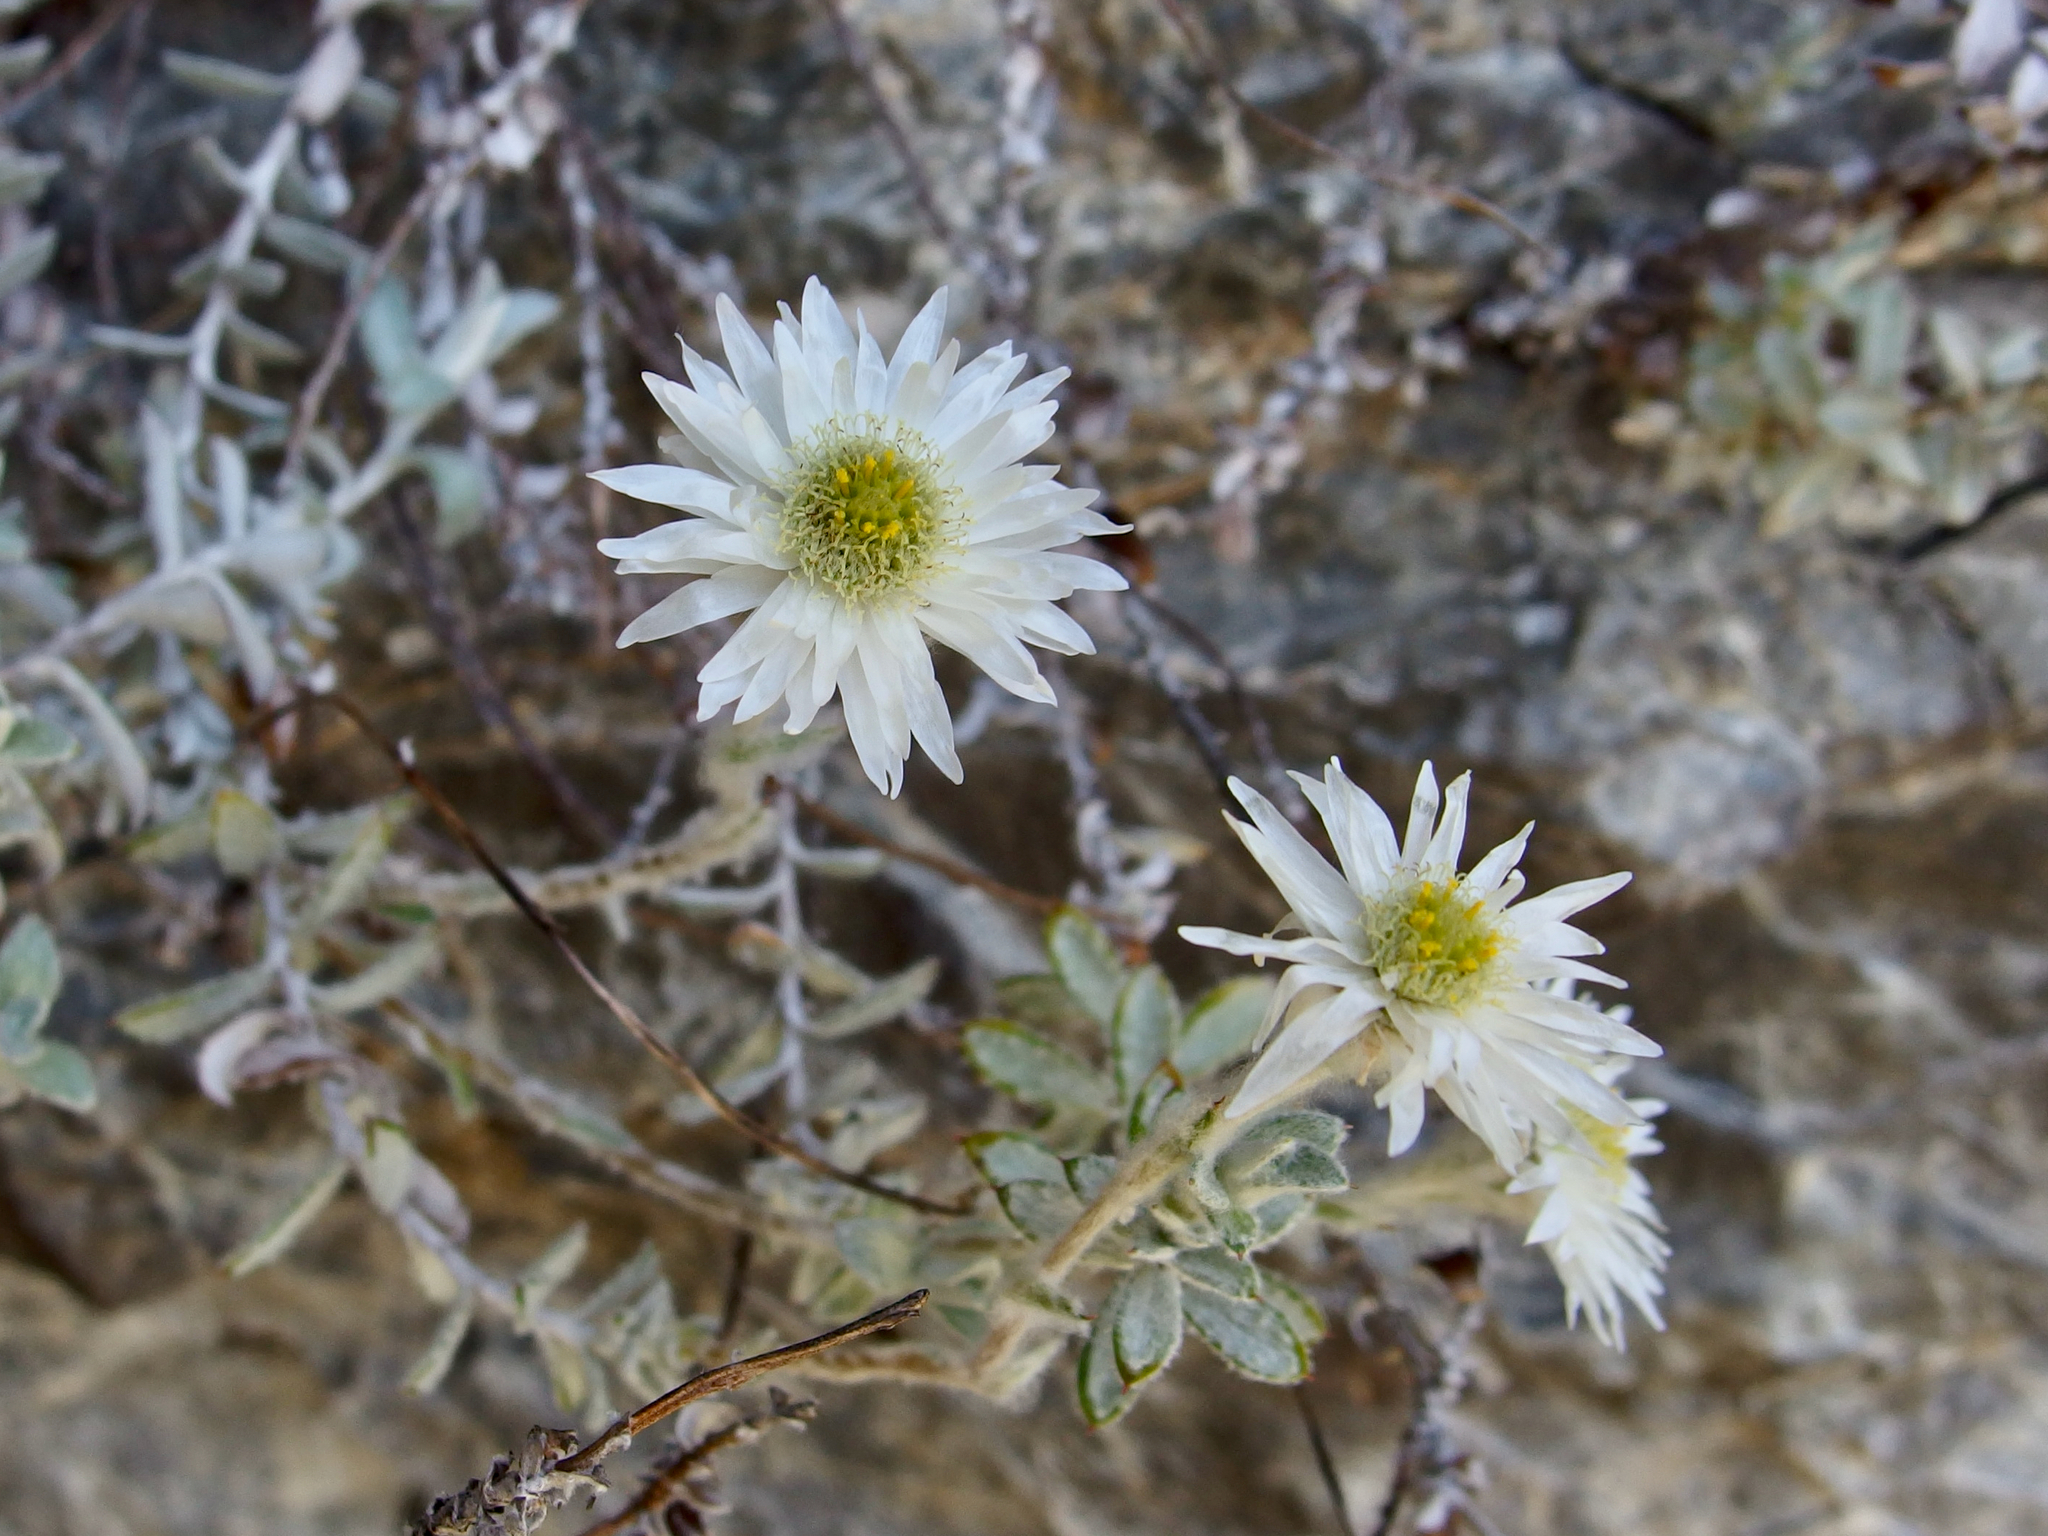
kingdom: Plantae
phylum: Tracheophyta
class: Magnoliopsida
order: Asterales
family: Asteraceae
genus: Anaphalioides
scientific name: Anaphalioides bellidioides
